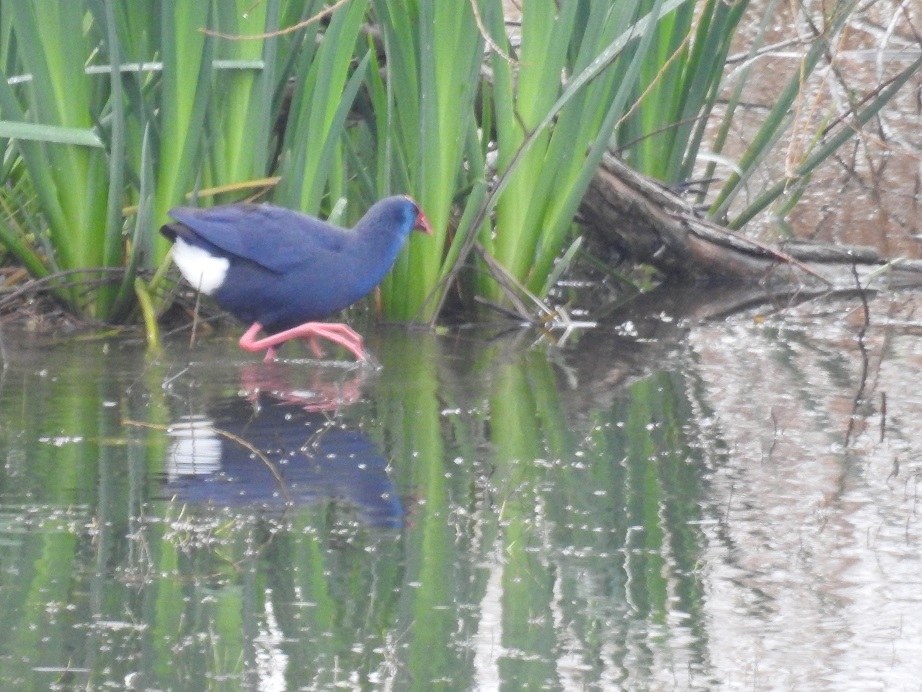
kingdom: Animalia
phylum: Chordata
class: Aves
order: Gruiformes
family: Rallidae
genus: Porphyrio
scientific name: Porphyrio porphyrio
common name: Purple swamphen
